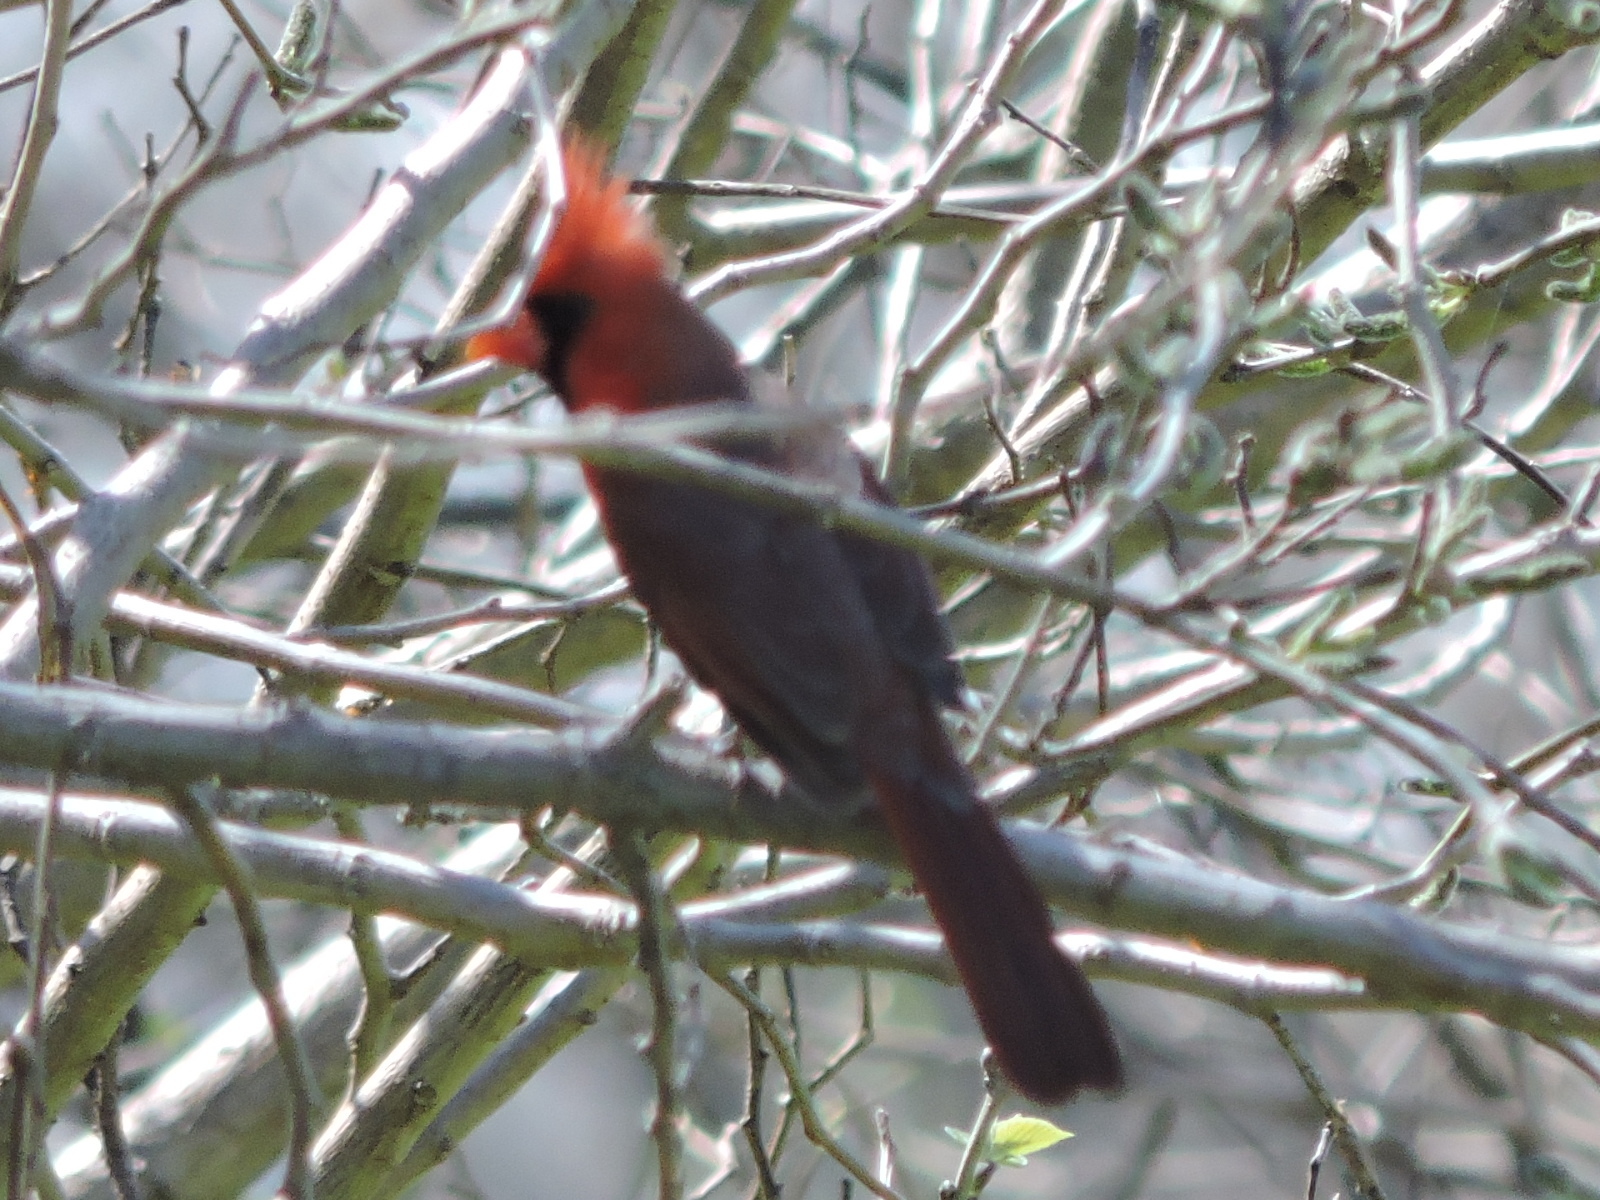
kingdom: Animalia
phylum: Chordata
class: Aves
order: Passeriformes
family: Cardinalidae
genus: Cardinalis
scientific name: Cardinalis cardinalis
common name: Northern cardinal
